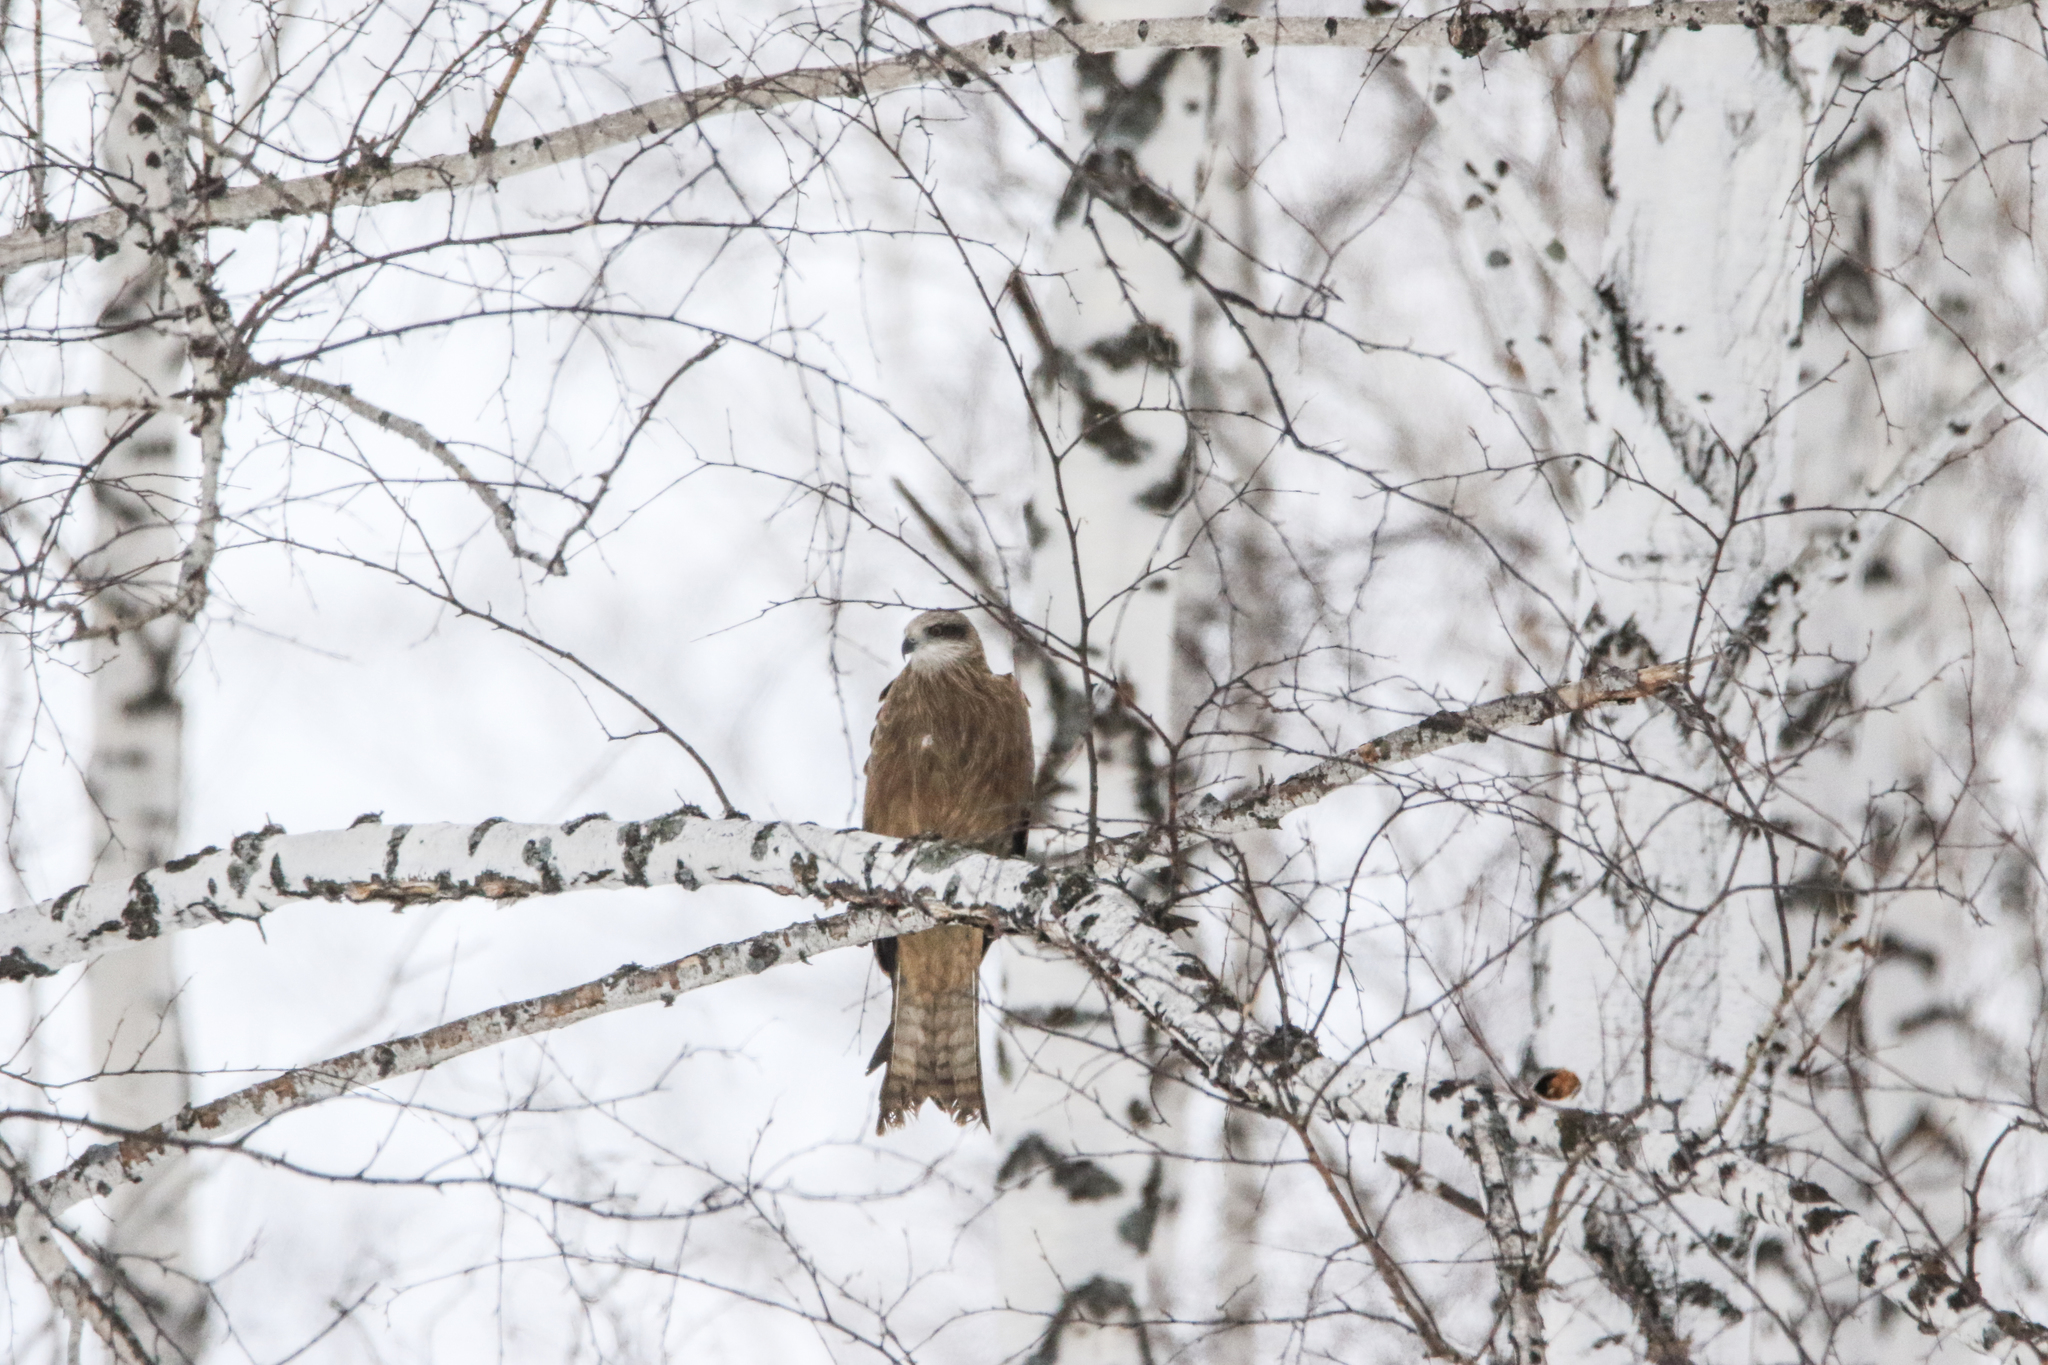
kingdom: Animalia
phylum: Chordata
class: Aves
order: Accipitriformes
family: Accipitridae
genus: Milvus
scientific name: Milvus migrans
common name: Black kite
